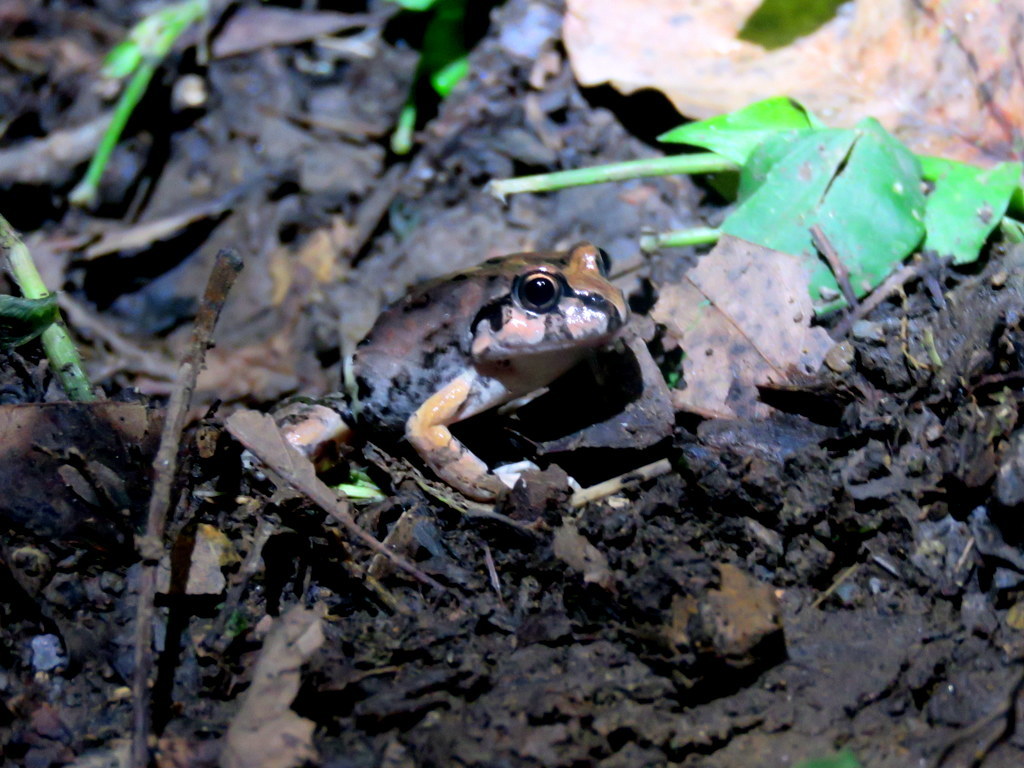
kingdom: Animalia
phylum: Chordata
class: Amphibia
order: Anura
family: Leptodactylidae
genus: Leptodactylus
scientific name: Leptodactylus macrosternum
